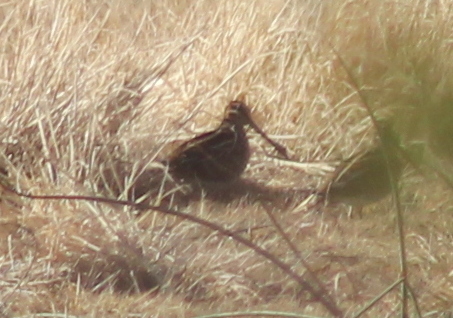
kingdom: Animalia
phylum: Chordata
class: Aves
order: Charadriiformes
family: Scolopacidae
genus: Gallinago
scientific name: Gallinago delicata
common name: Wilson's snipe
